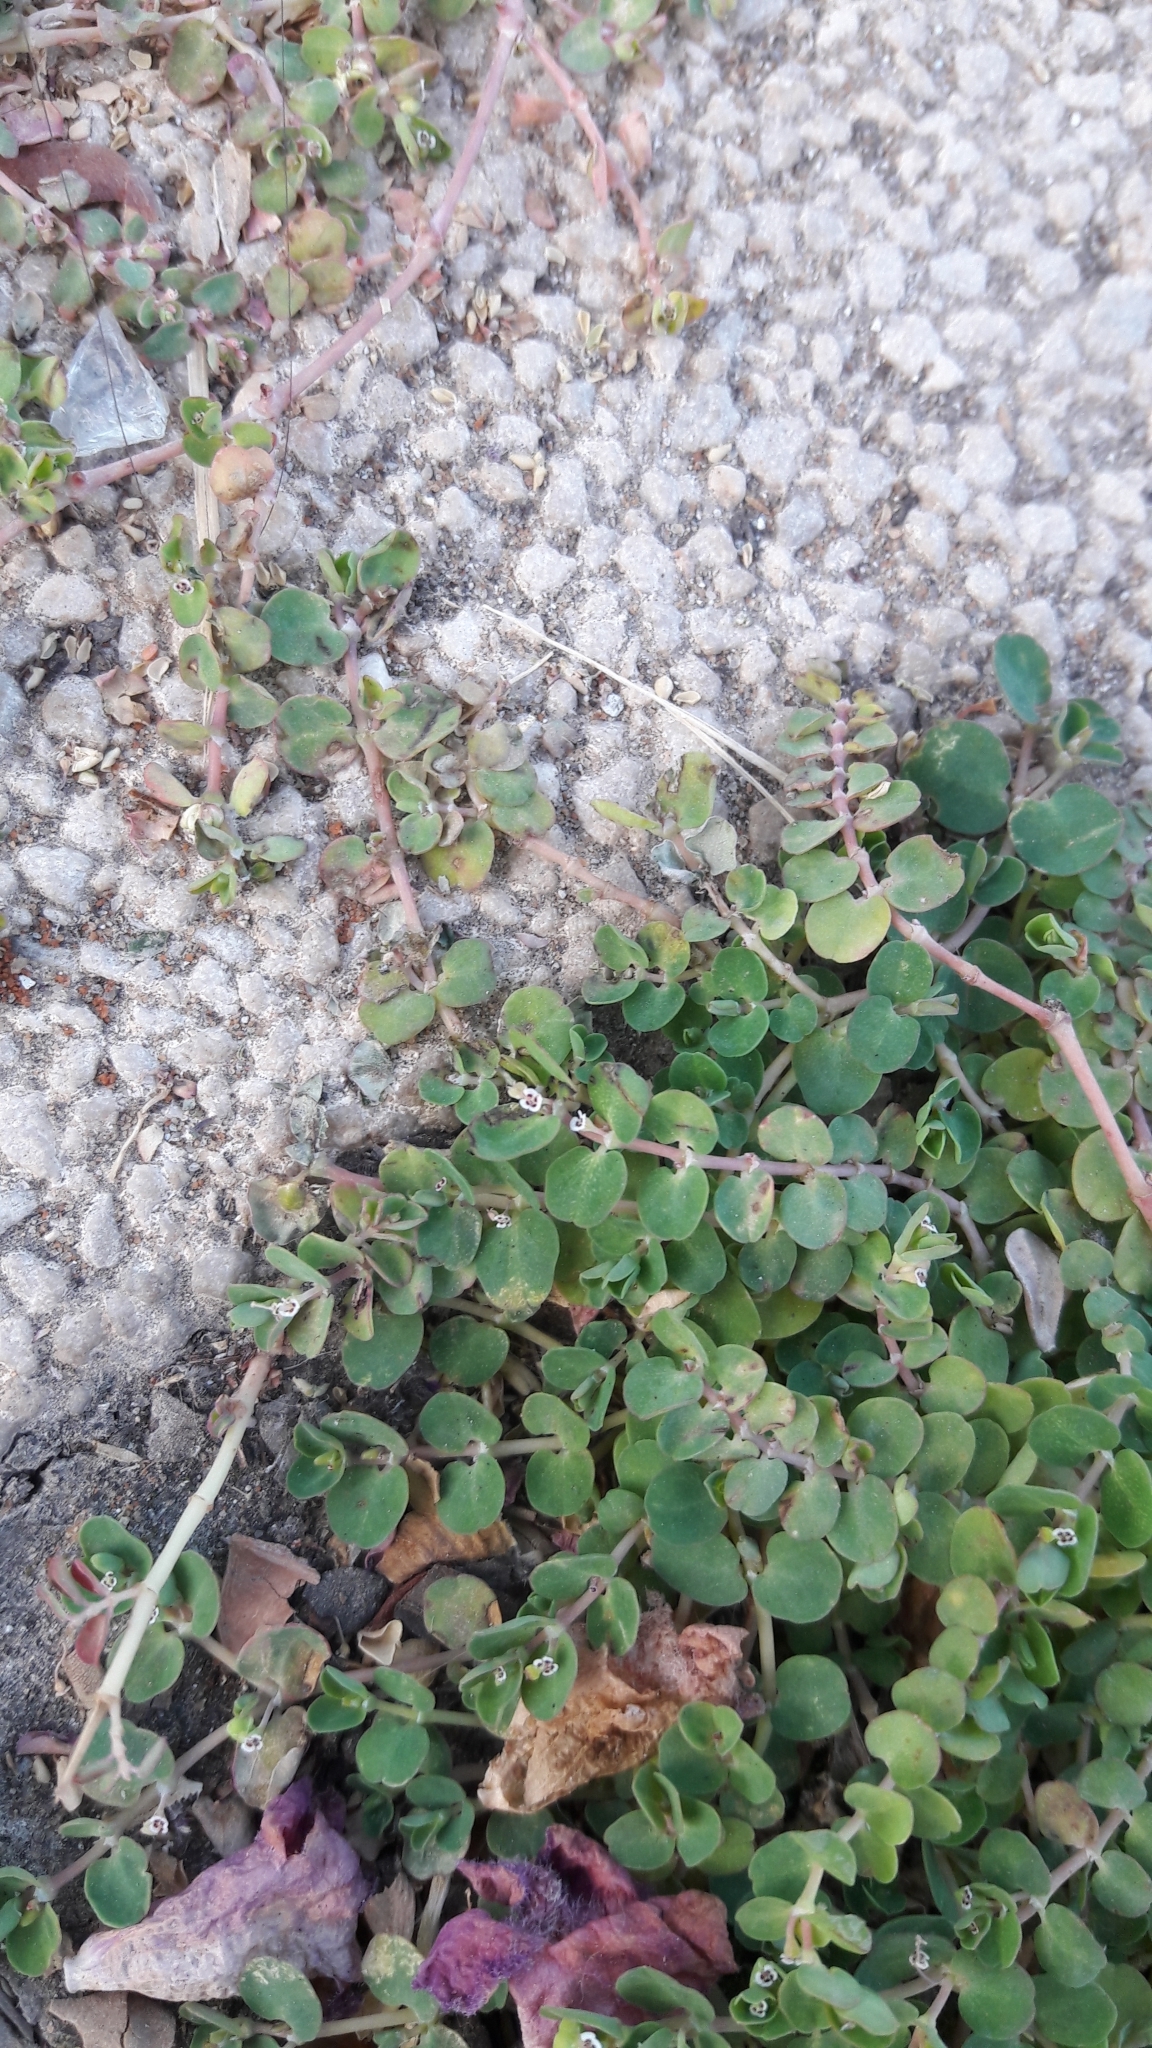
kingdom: Plantae
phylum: Tracheophyta
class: Magnoliopsida
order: Malpighiales
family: Euphorbiaceae
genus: Euphorbia
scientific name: Euphorbia serpens
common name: Matted sandmat
